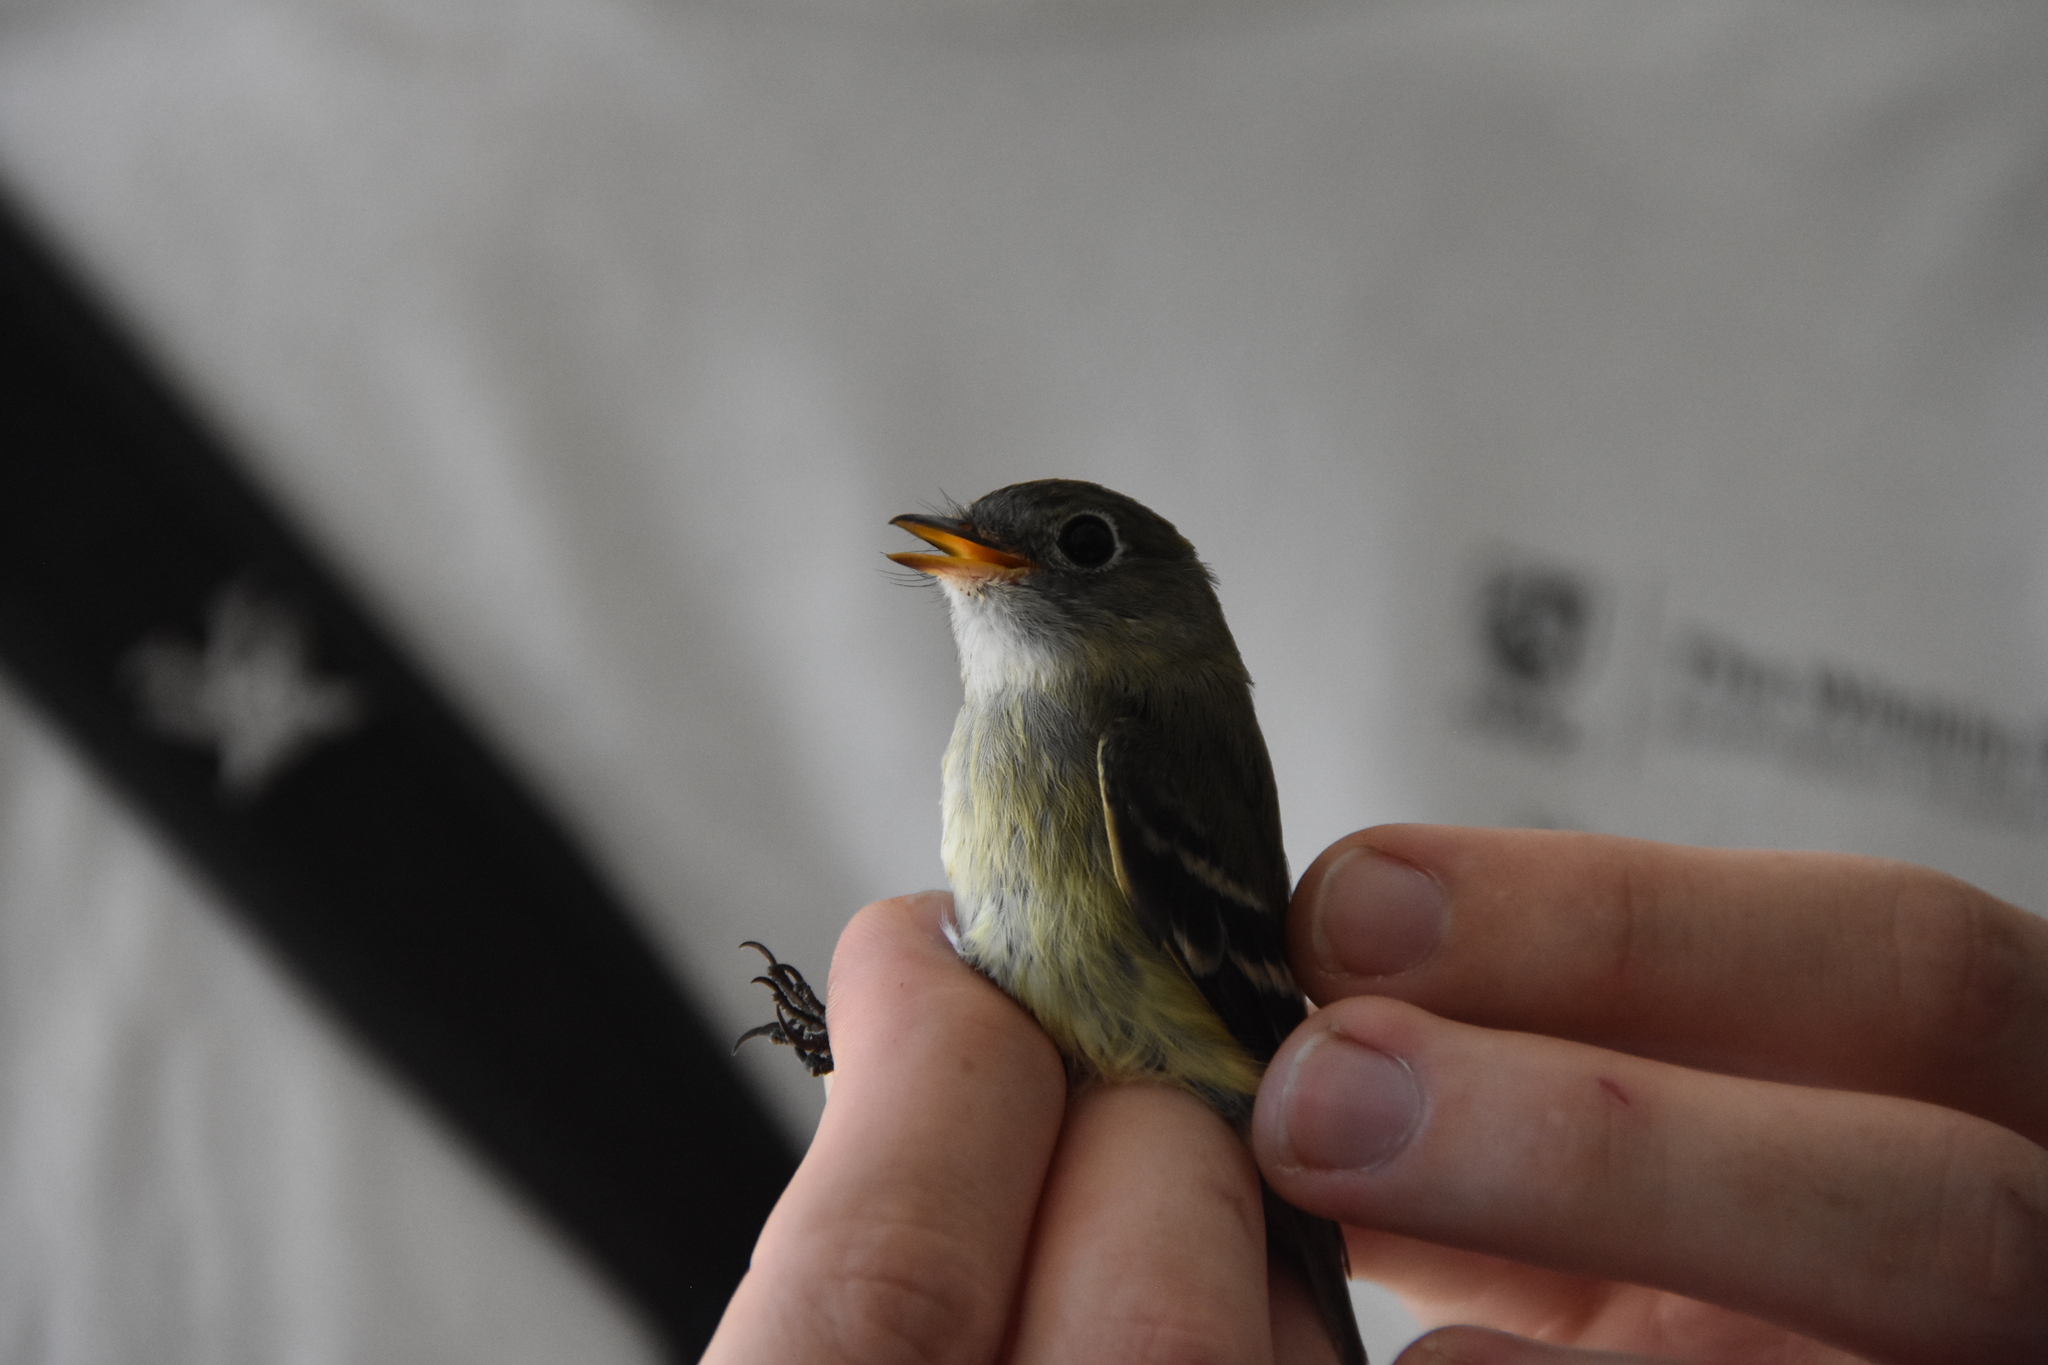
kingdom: Animalia
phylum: Chordata
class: Aves
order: Passeriformes
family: Tyrannidae
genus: Empidonax
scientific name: Empidonax minimus
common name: Least flycatcher
